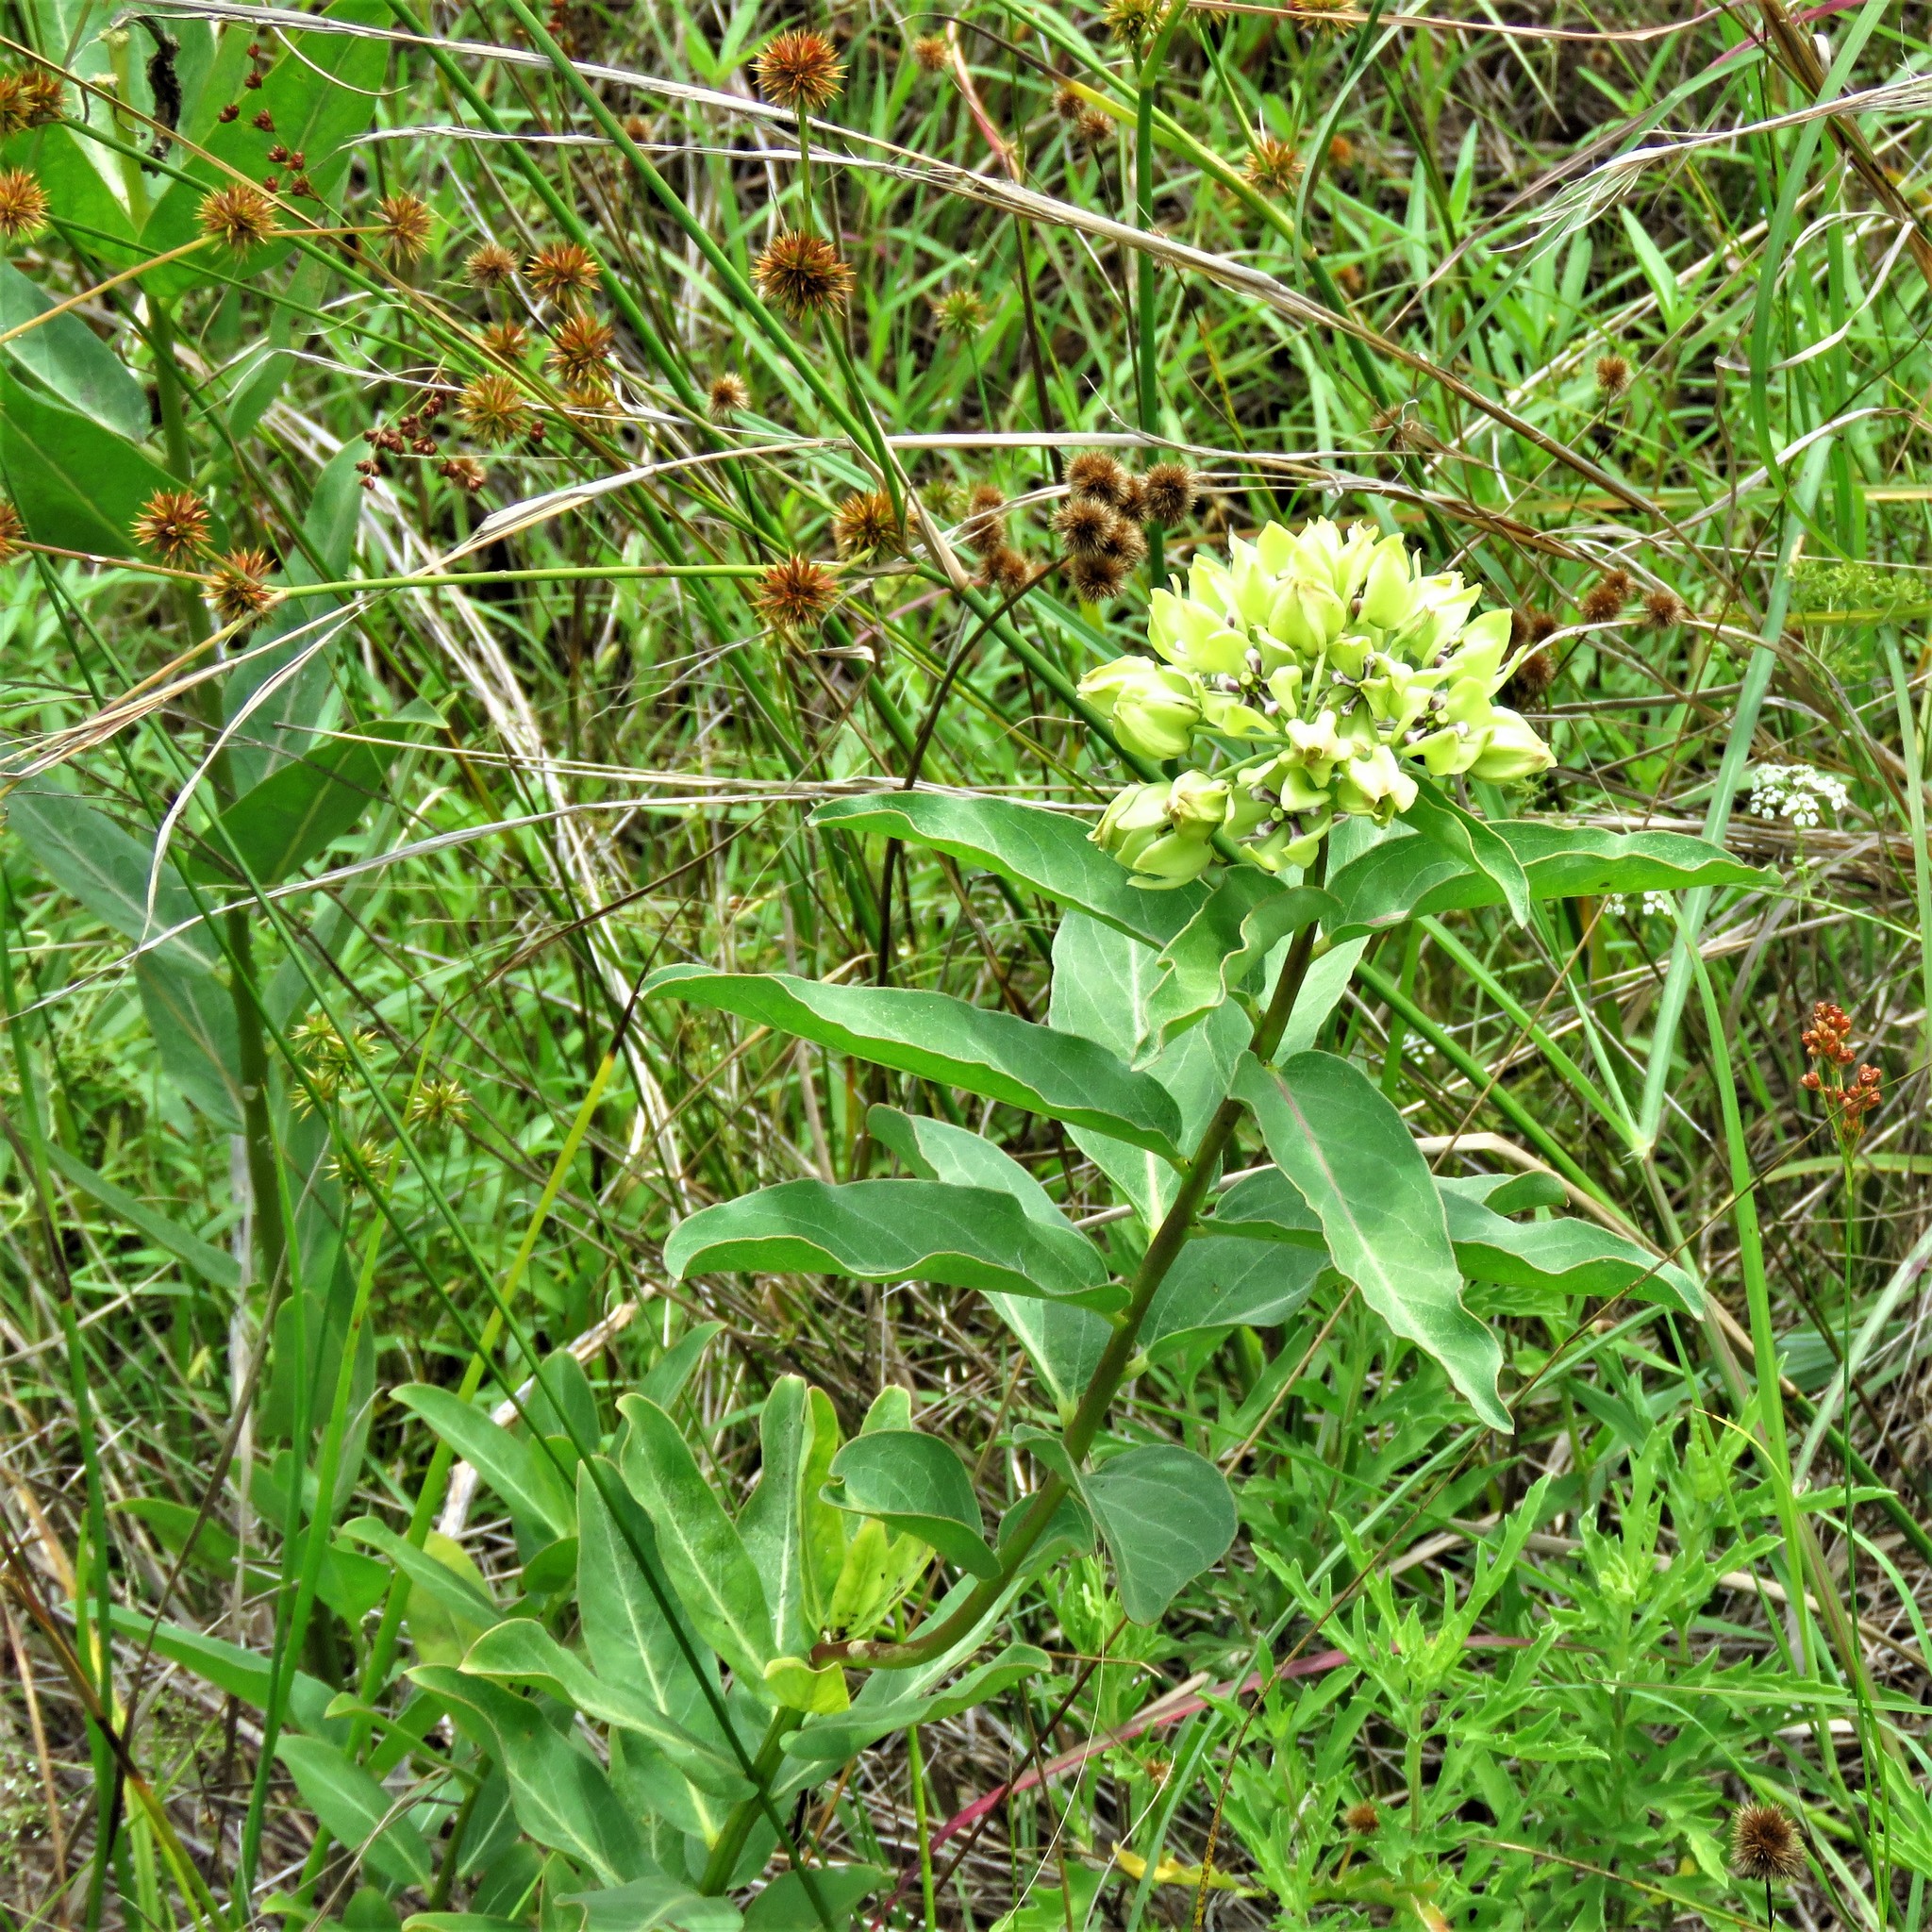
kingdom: Plantae
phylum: Tracheophyta
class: Magnoliopsida
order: Gentianales
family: Apocynaceae
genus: Asclepias
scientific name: Asclepias viridis
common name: Antelope-horns
